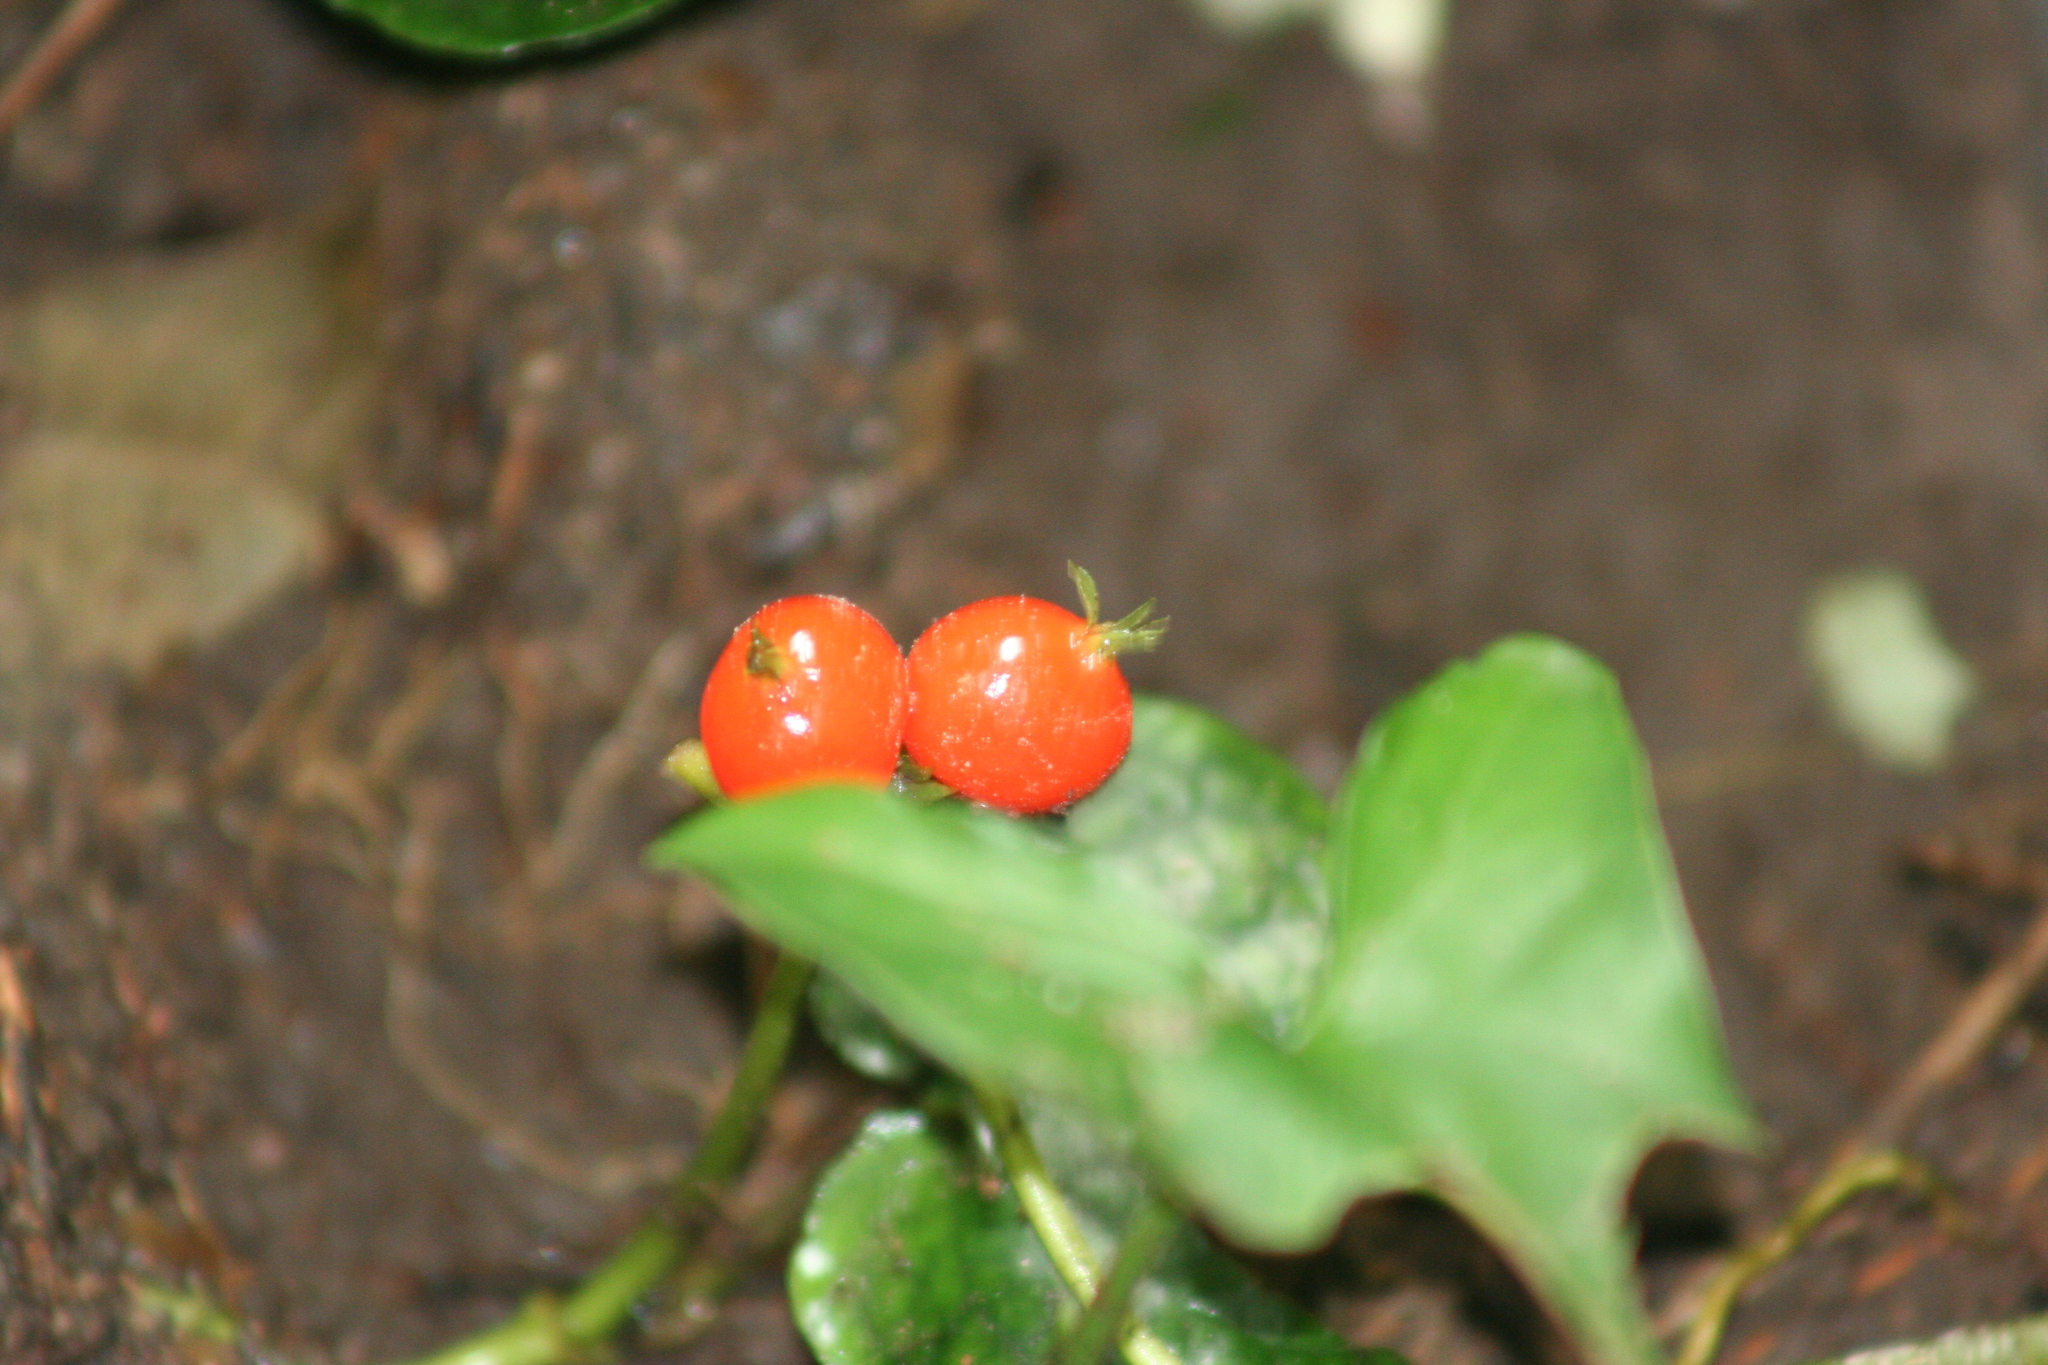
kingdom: Plantae
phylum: Tracheophyta
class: Magnoliopsida
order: Gentianales
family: Rubiaceae
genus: Geophila
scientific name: Geophila repens
